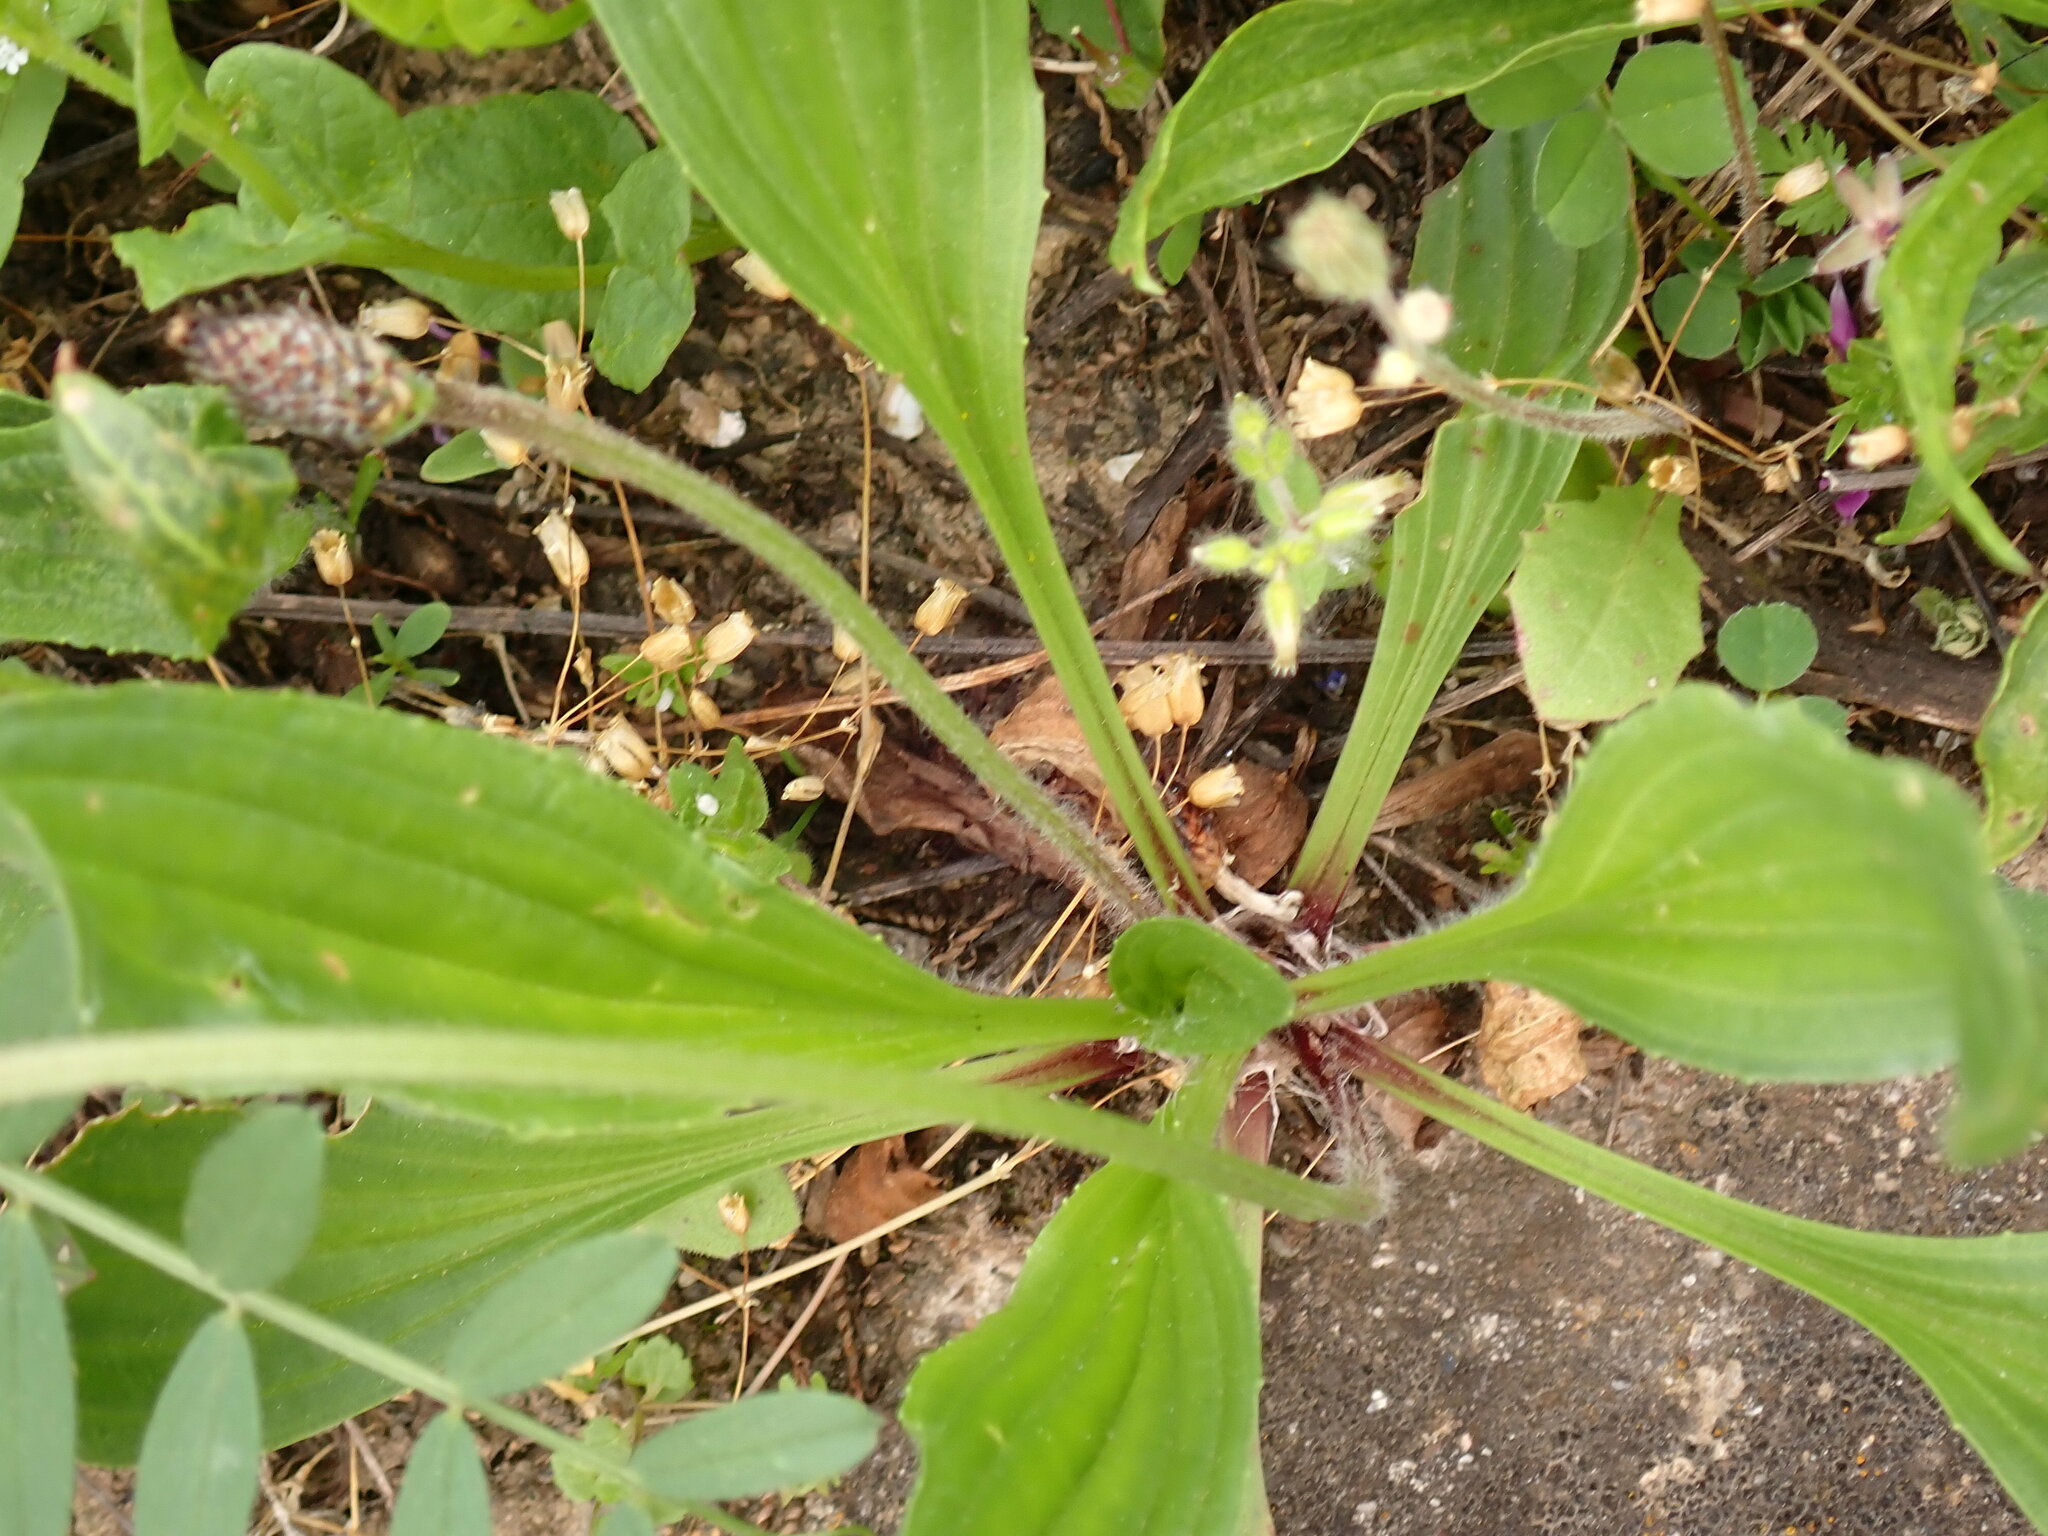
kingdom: Plantae
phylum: Tracheophyta
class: Magnoliopsida
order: Lamiales
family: Plantaginaceae
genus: Plantago
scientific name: Plantago lanceolata
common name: Ribwort plantain
